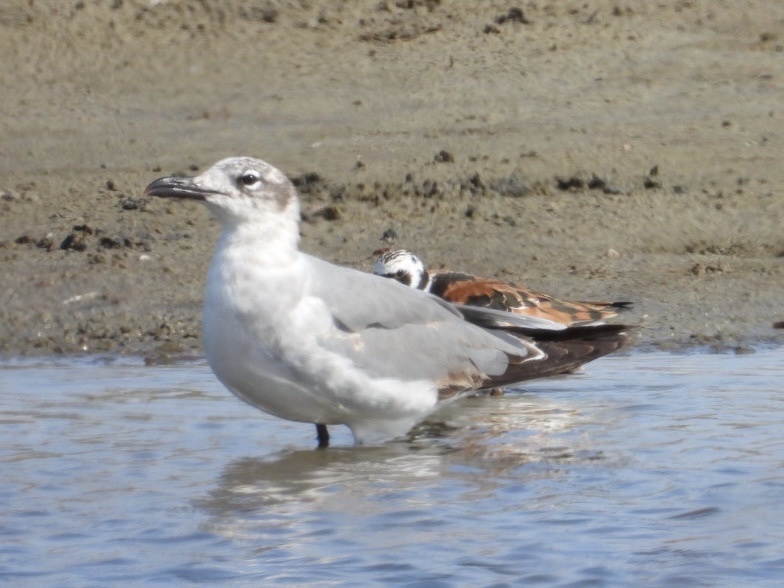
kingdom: Animalia
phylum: Chordata
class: Aves
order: Charadriiformes
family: Laridae
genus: Leucophaeus
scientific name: Leucophaeus atricilla
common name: Laughing gull
